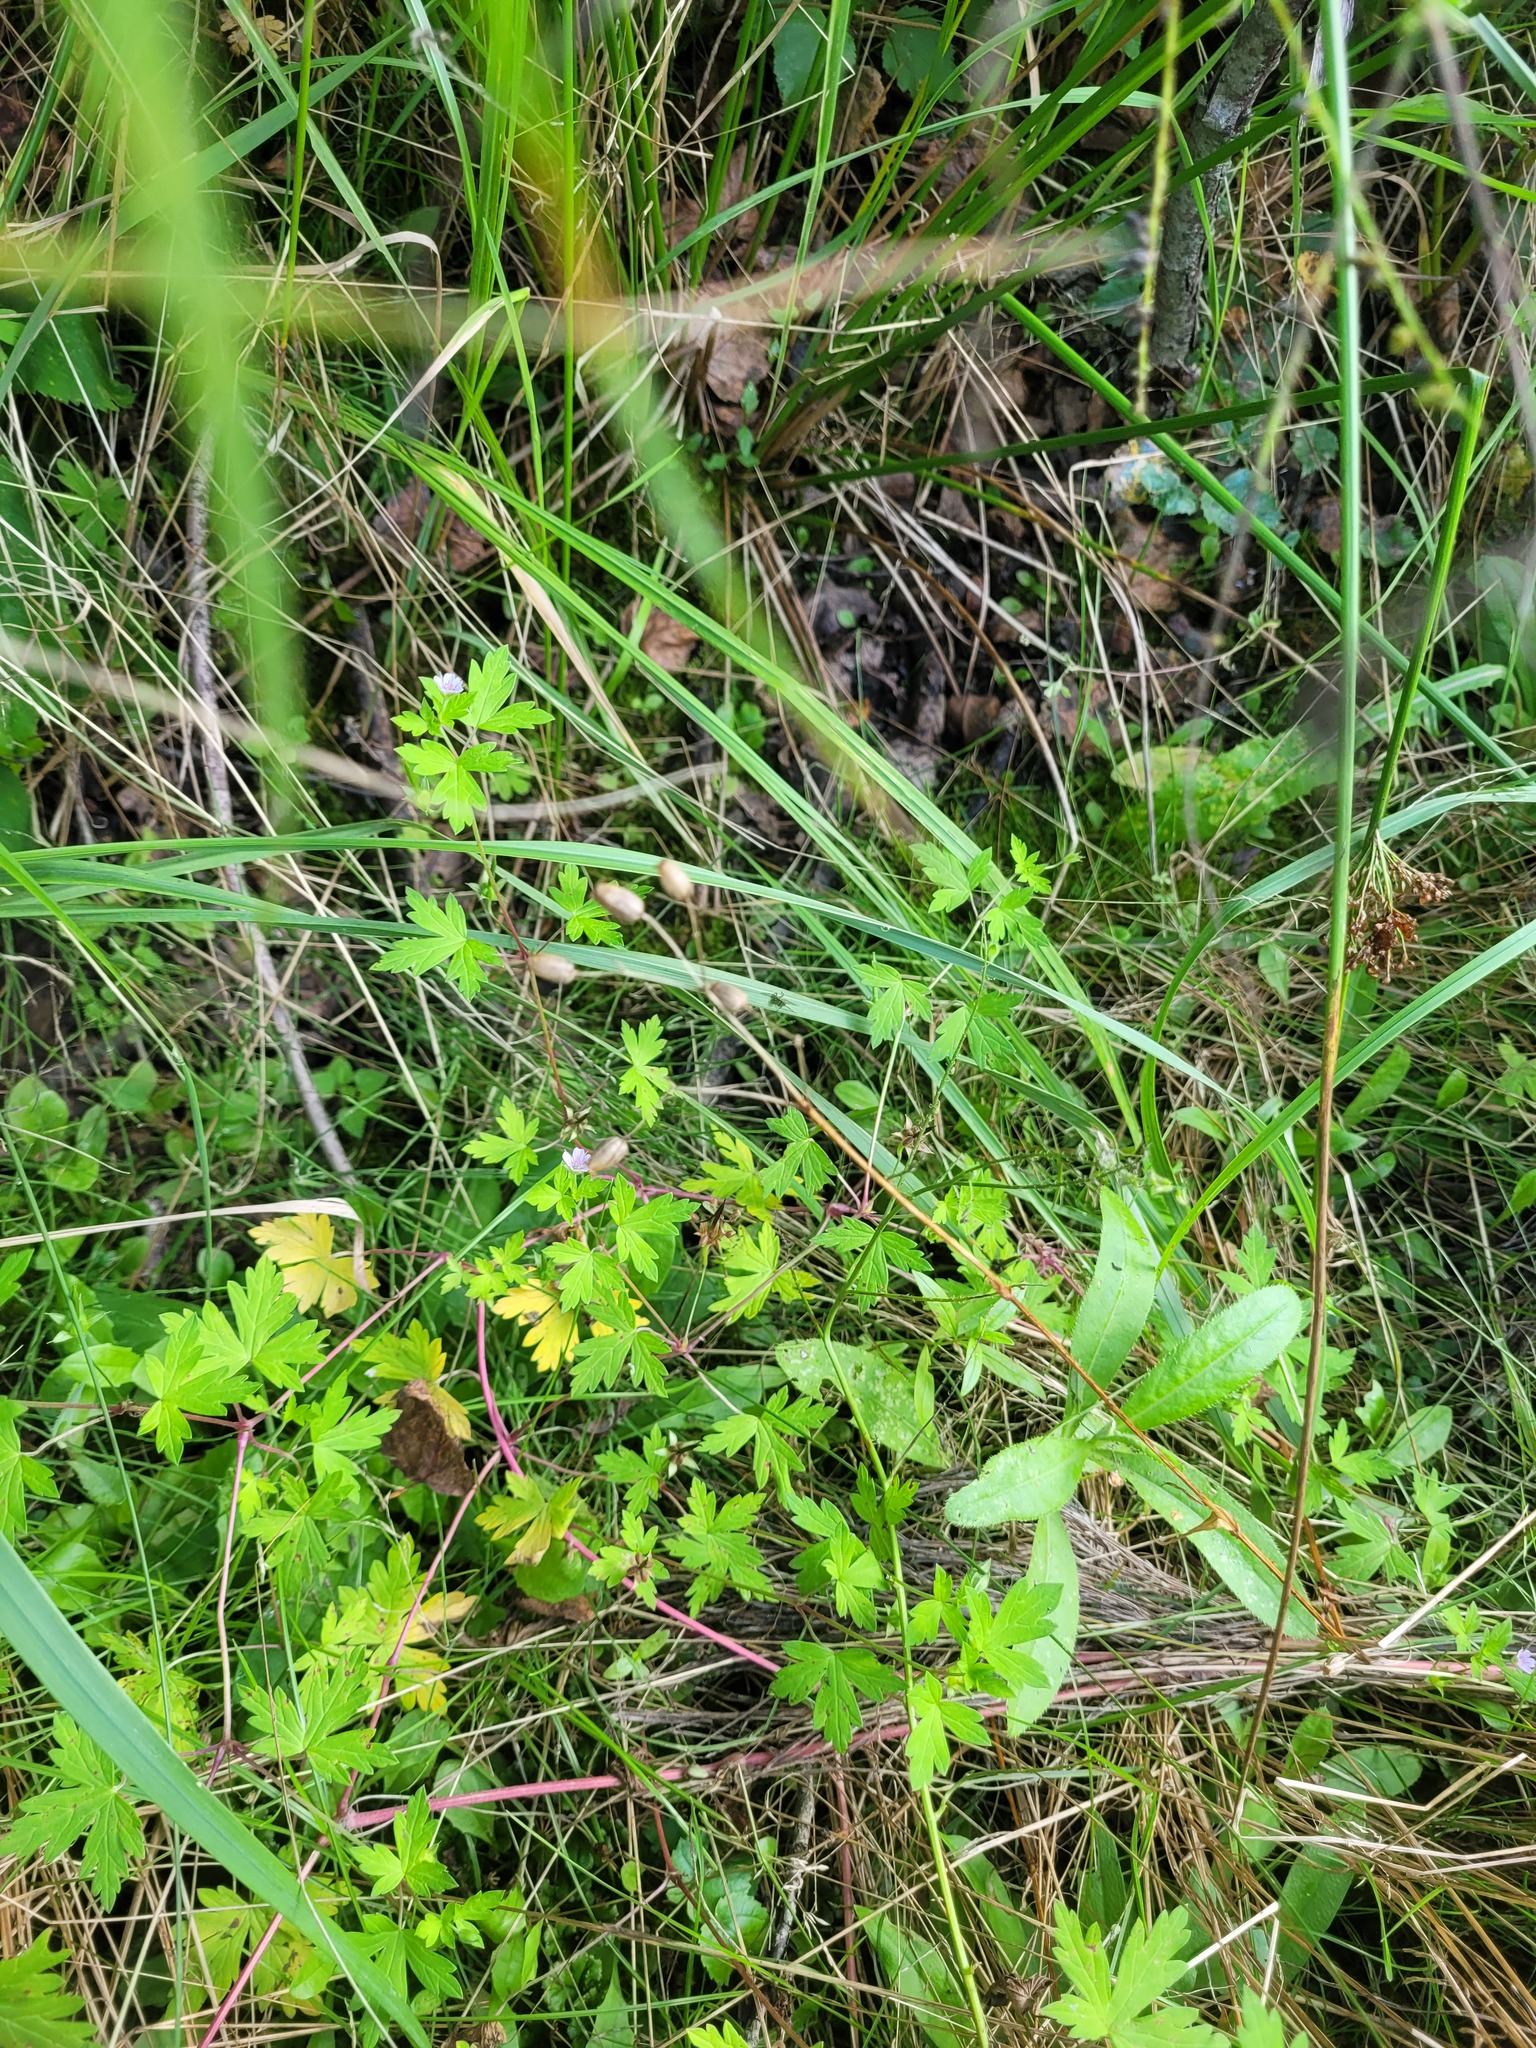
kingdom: Plantae
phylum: Tracheophyta
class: Magnoliopsida
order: Geraniales
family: Geraniaceae
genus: Geranium
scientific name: Geranium sibiricum
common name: Siberian crane's-bill
